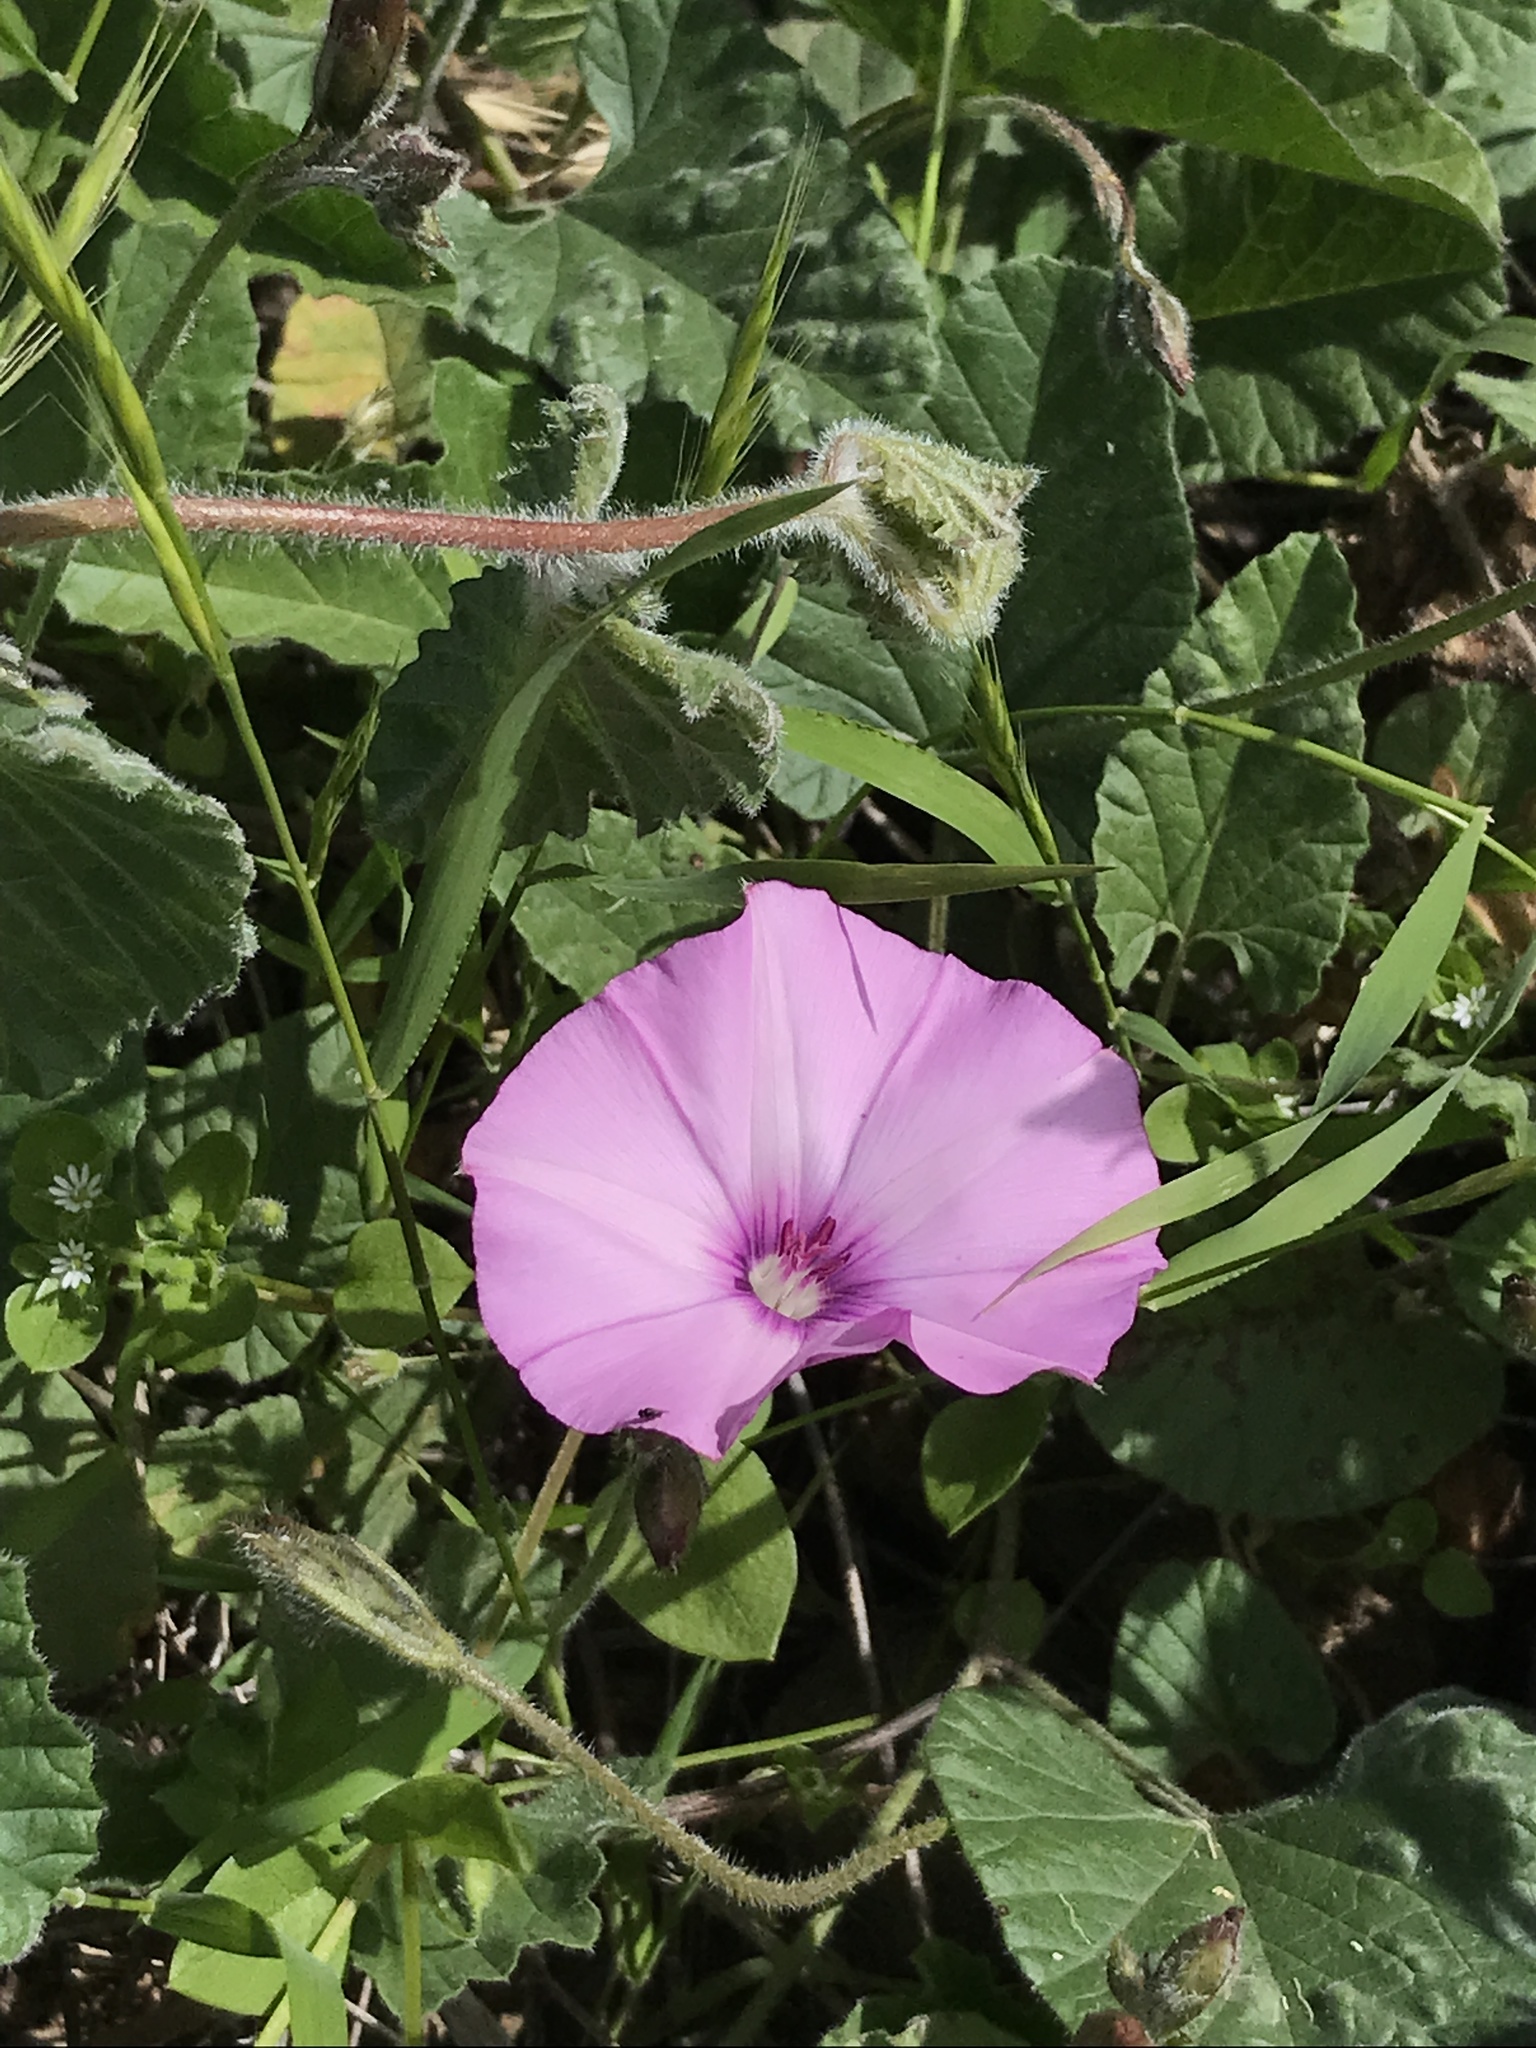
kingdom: Plantae
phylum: Tracheophyta
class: Magnoliopsida
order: Solanales
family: Convolvulaceae
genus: Convolvulus
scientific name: Convolvulus althaeoides
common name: Mallow bindweed
